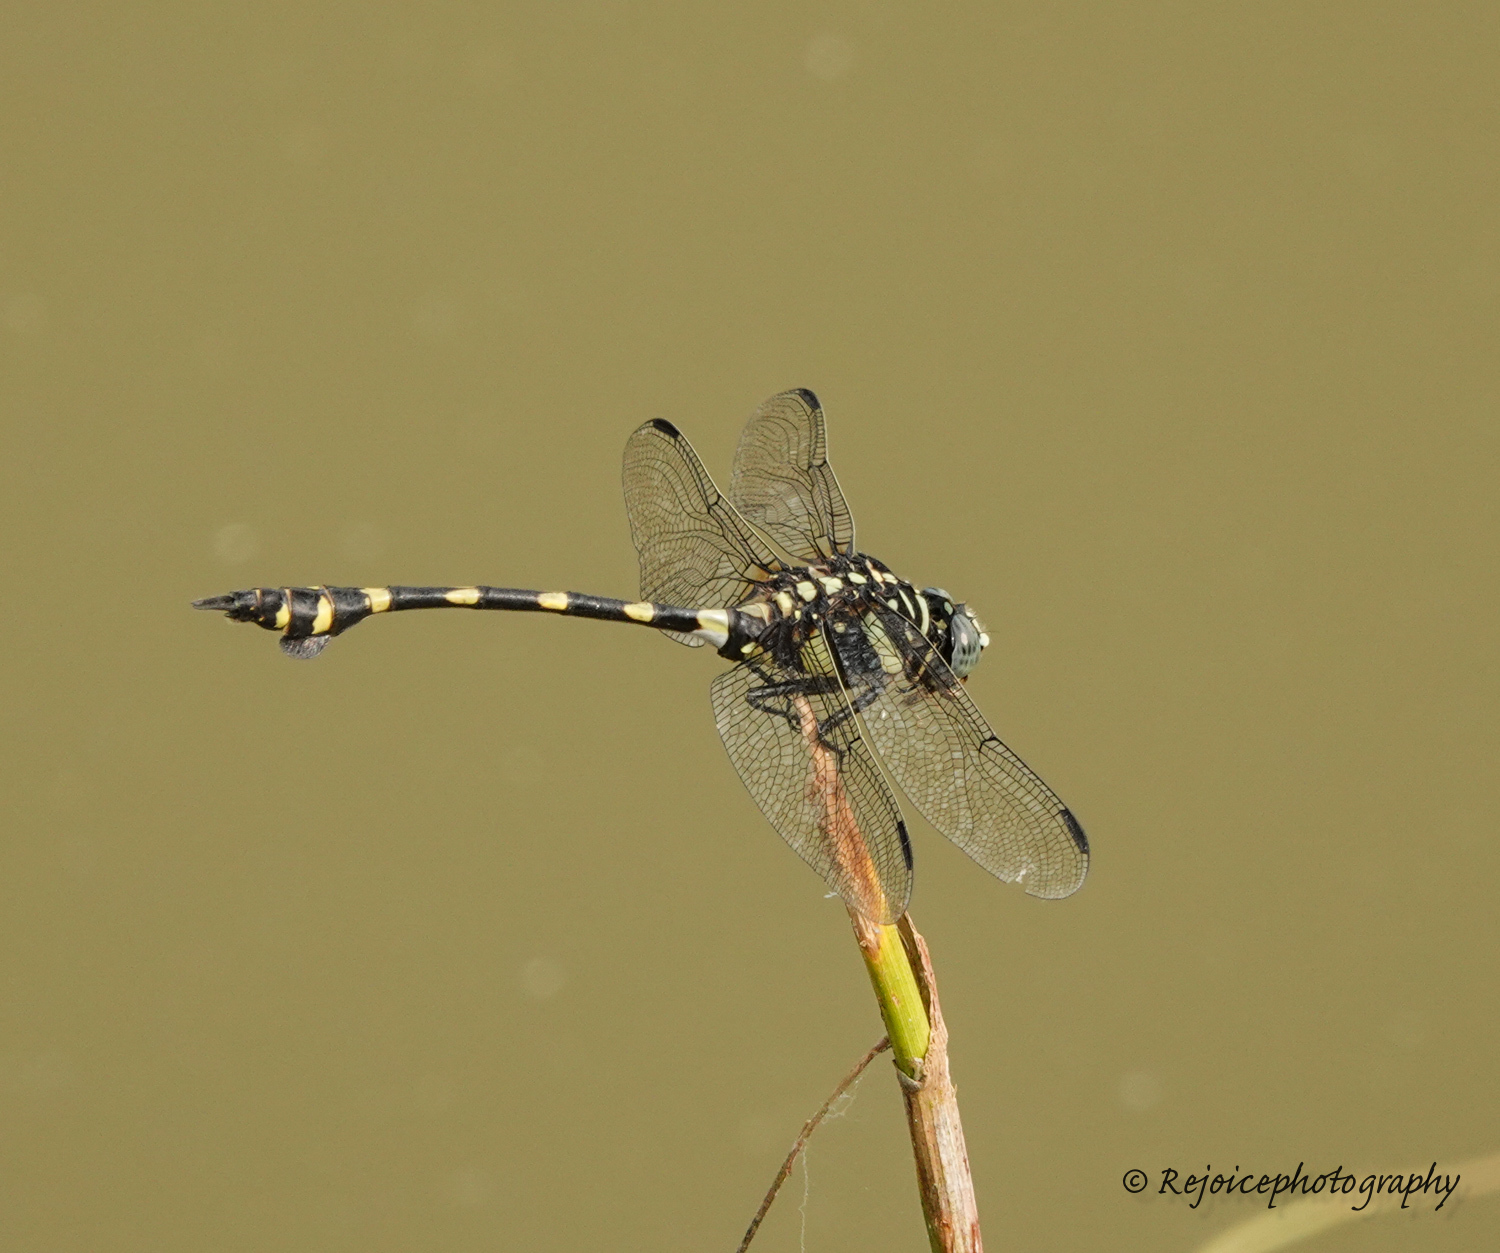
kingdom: Animalia
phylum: Arthropoda
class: Insecta
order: Odonata
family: Gomphidae
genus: Ictinogomphus
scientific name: Ictinogomphus rapax
